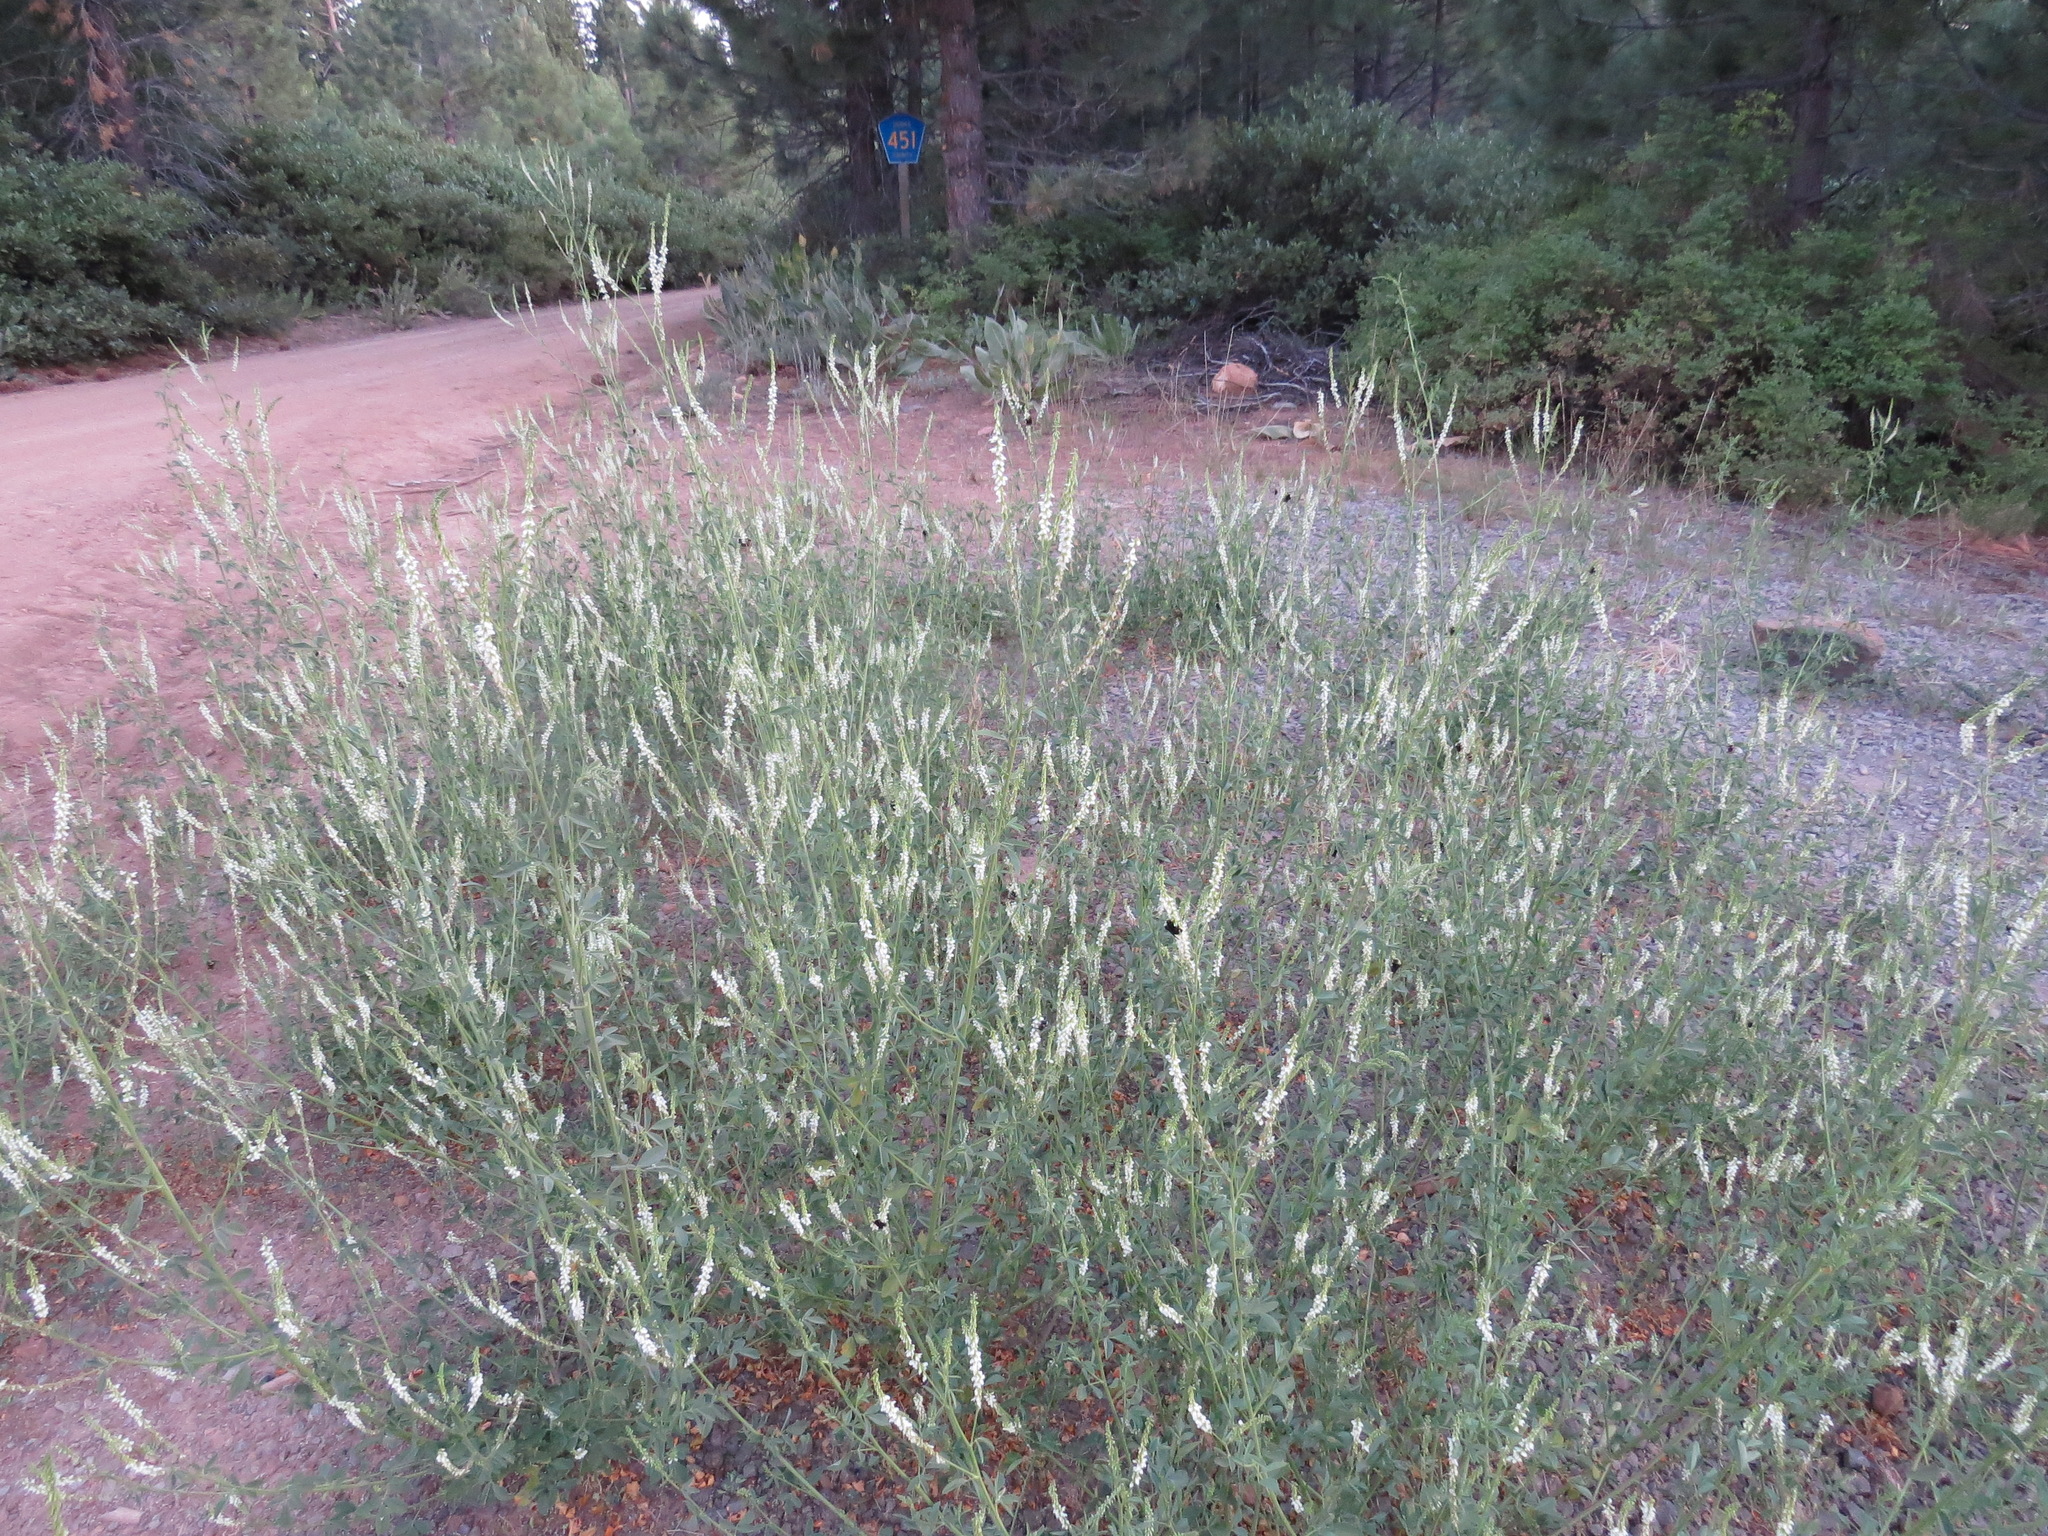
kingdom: Plantae
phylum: Tracheophyta
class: Magnoliopsida
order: Fabales
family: Fabaceae
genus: Melilotus
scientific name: Melilotus albus
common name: White melilot
